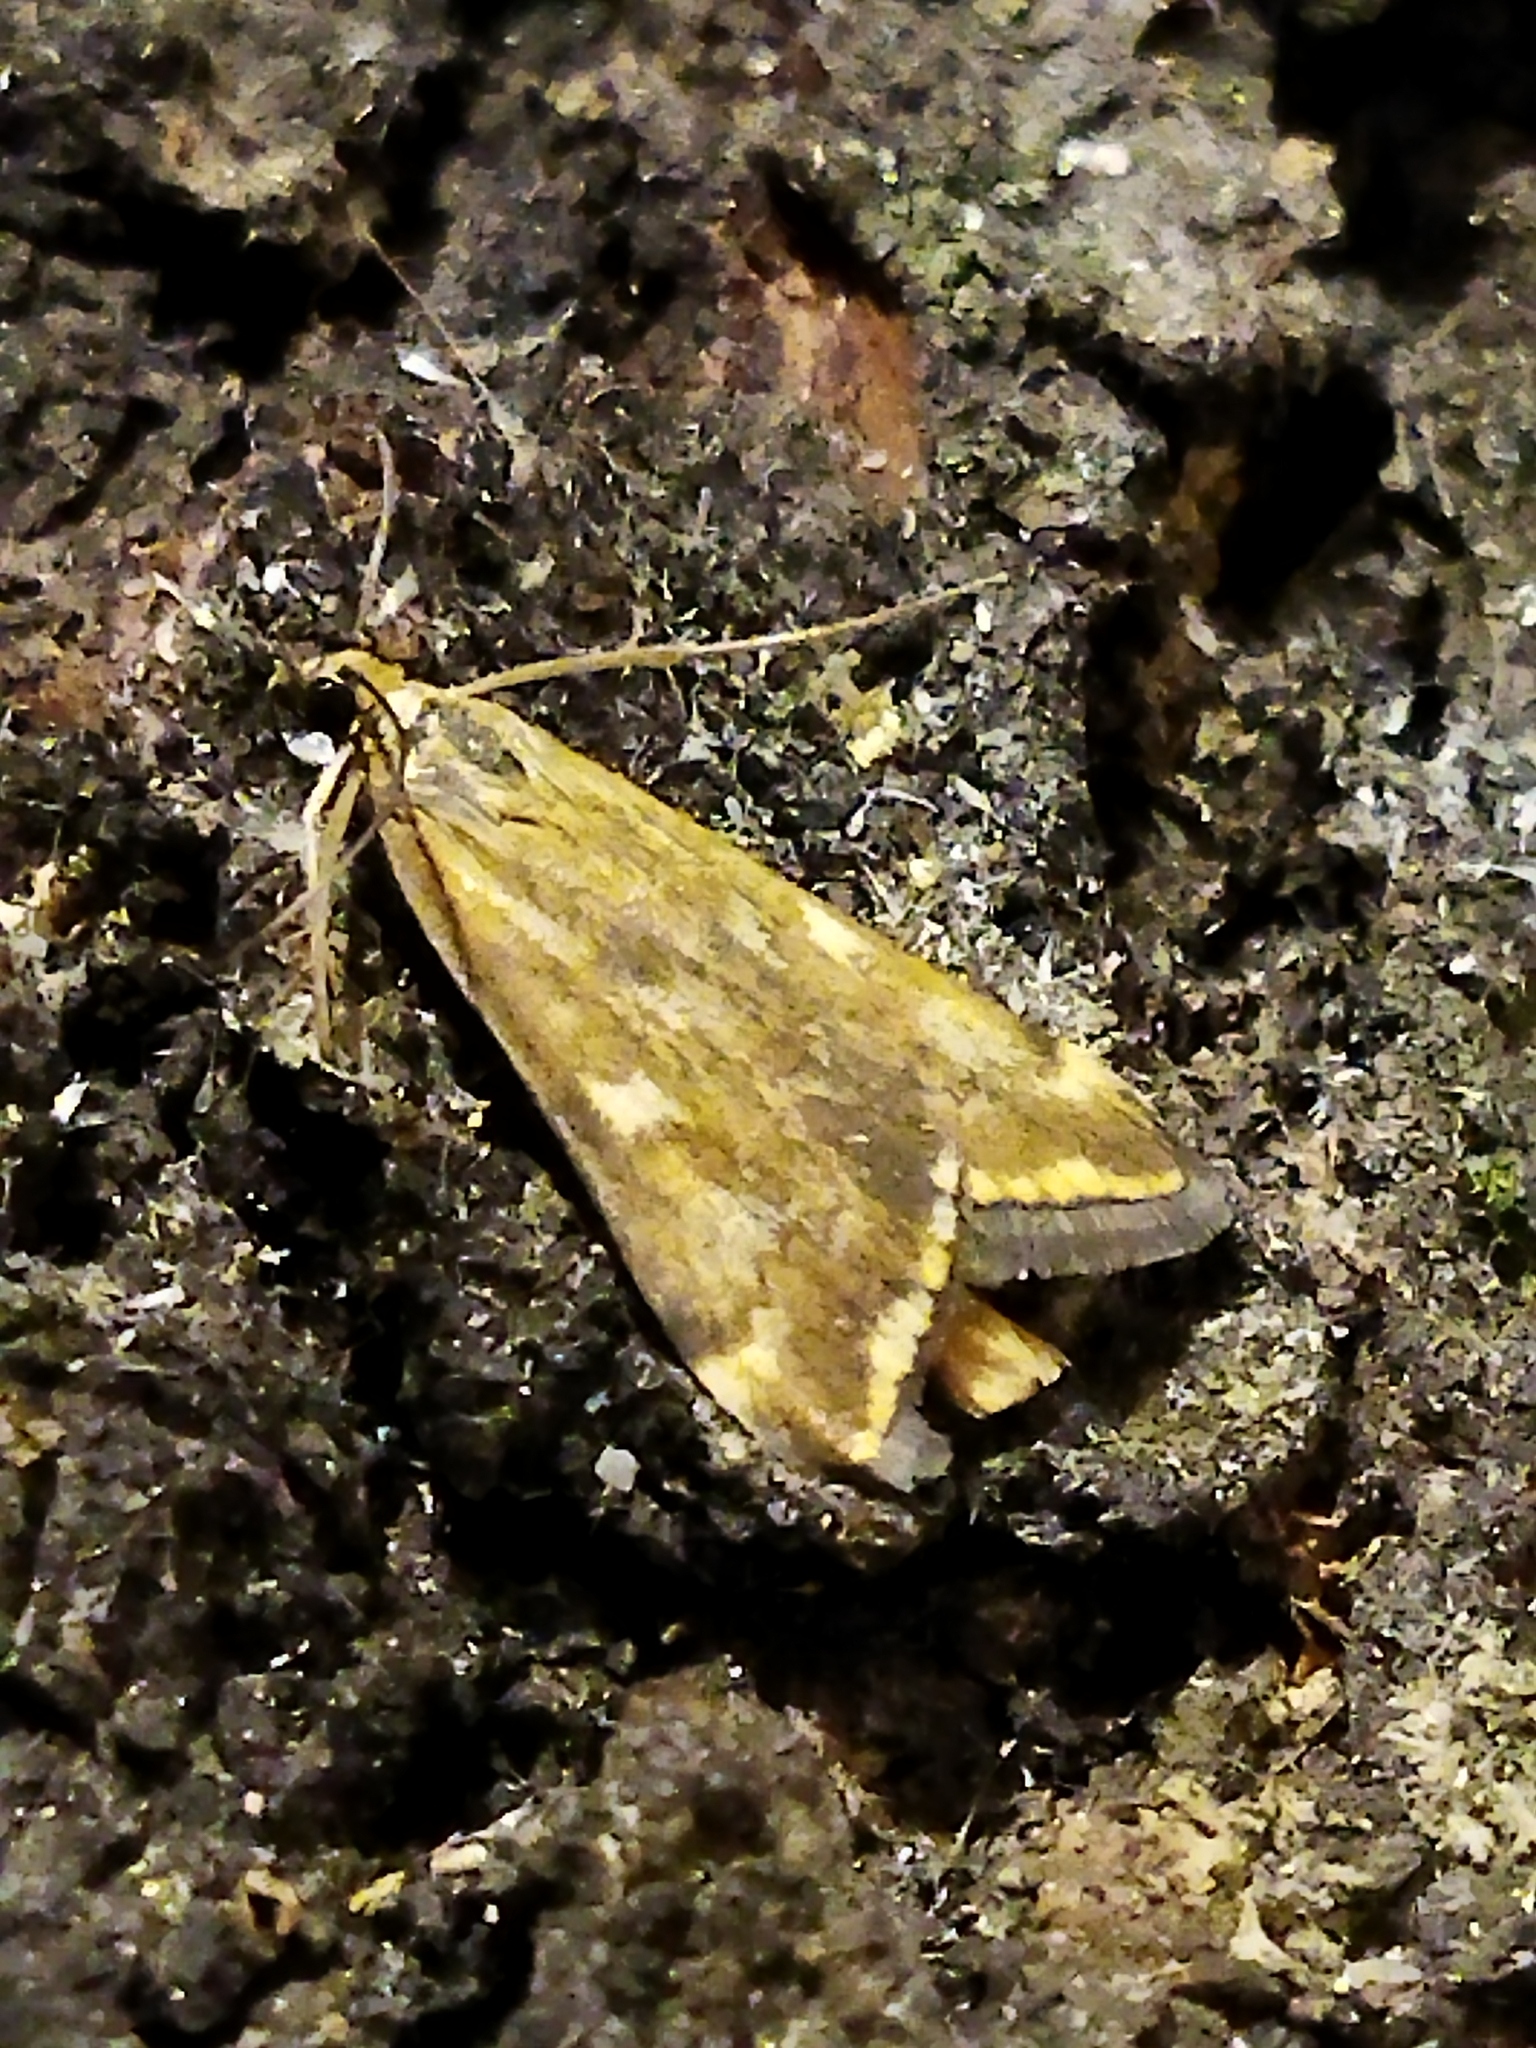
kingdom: Animalia
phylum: Arthropoda
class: Insecta
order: Lepidoptera
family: Crambidae
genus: Loxostege
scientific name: Loxostege sticticalis
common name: Crambid moth
